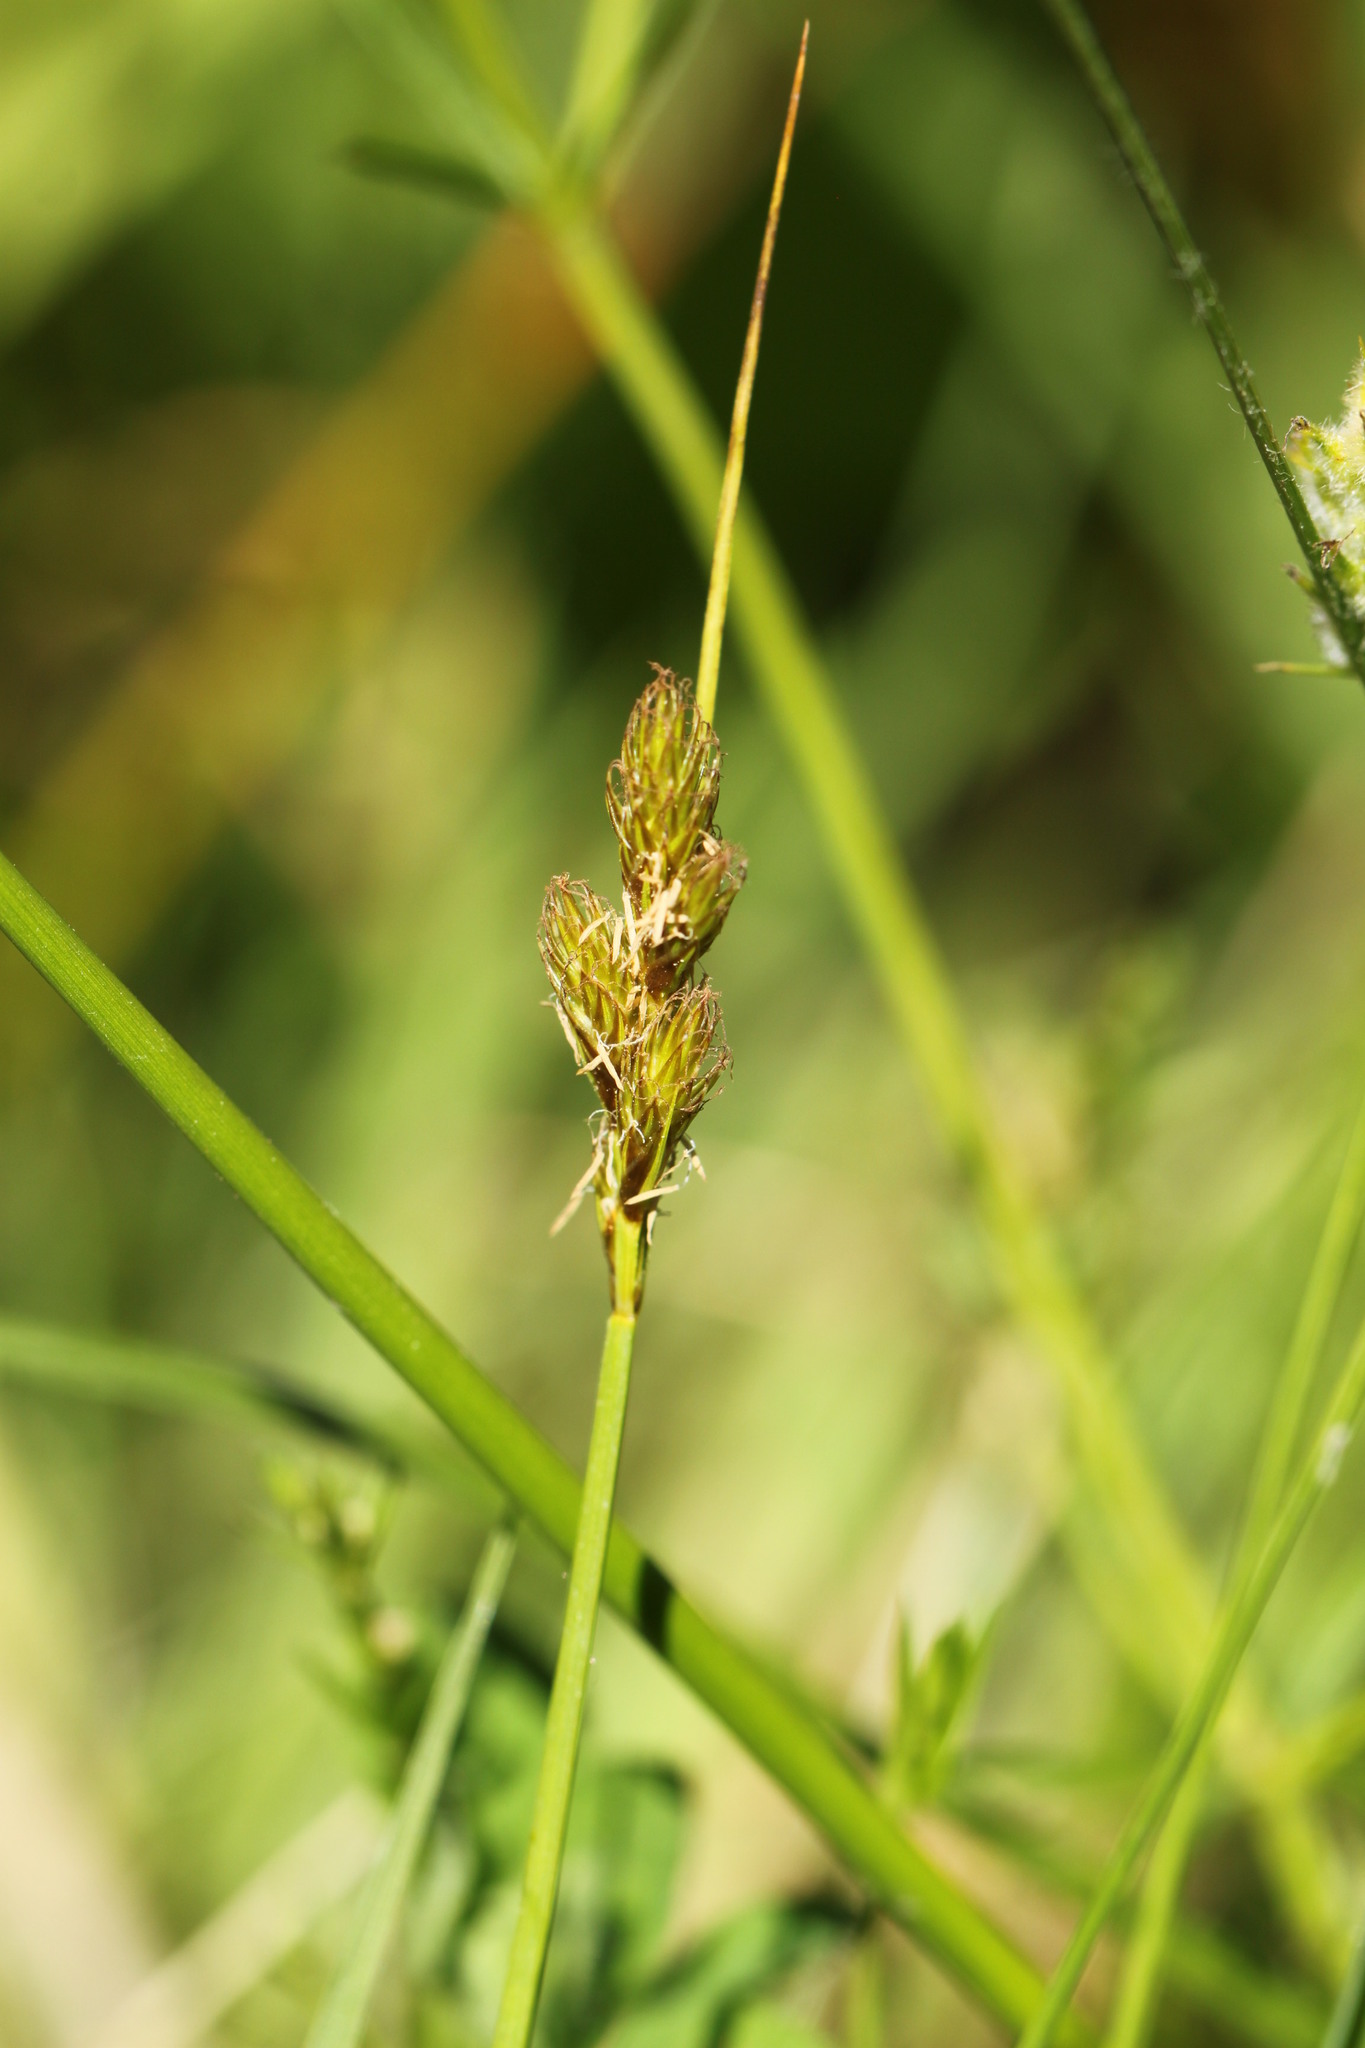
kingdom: Plantae
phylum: Tracheophyta
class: Liliopsida
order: Poales
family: Cyperaceae
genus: Carex
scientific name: Carex leporina
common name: Oval sedge
